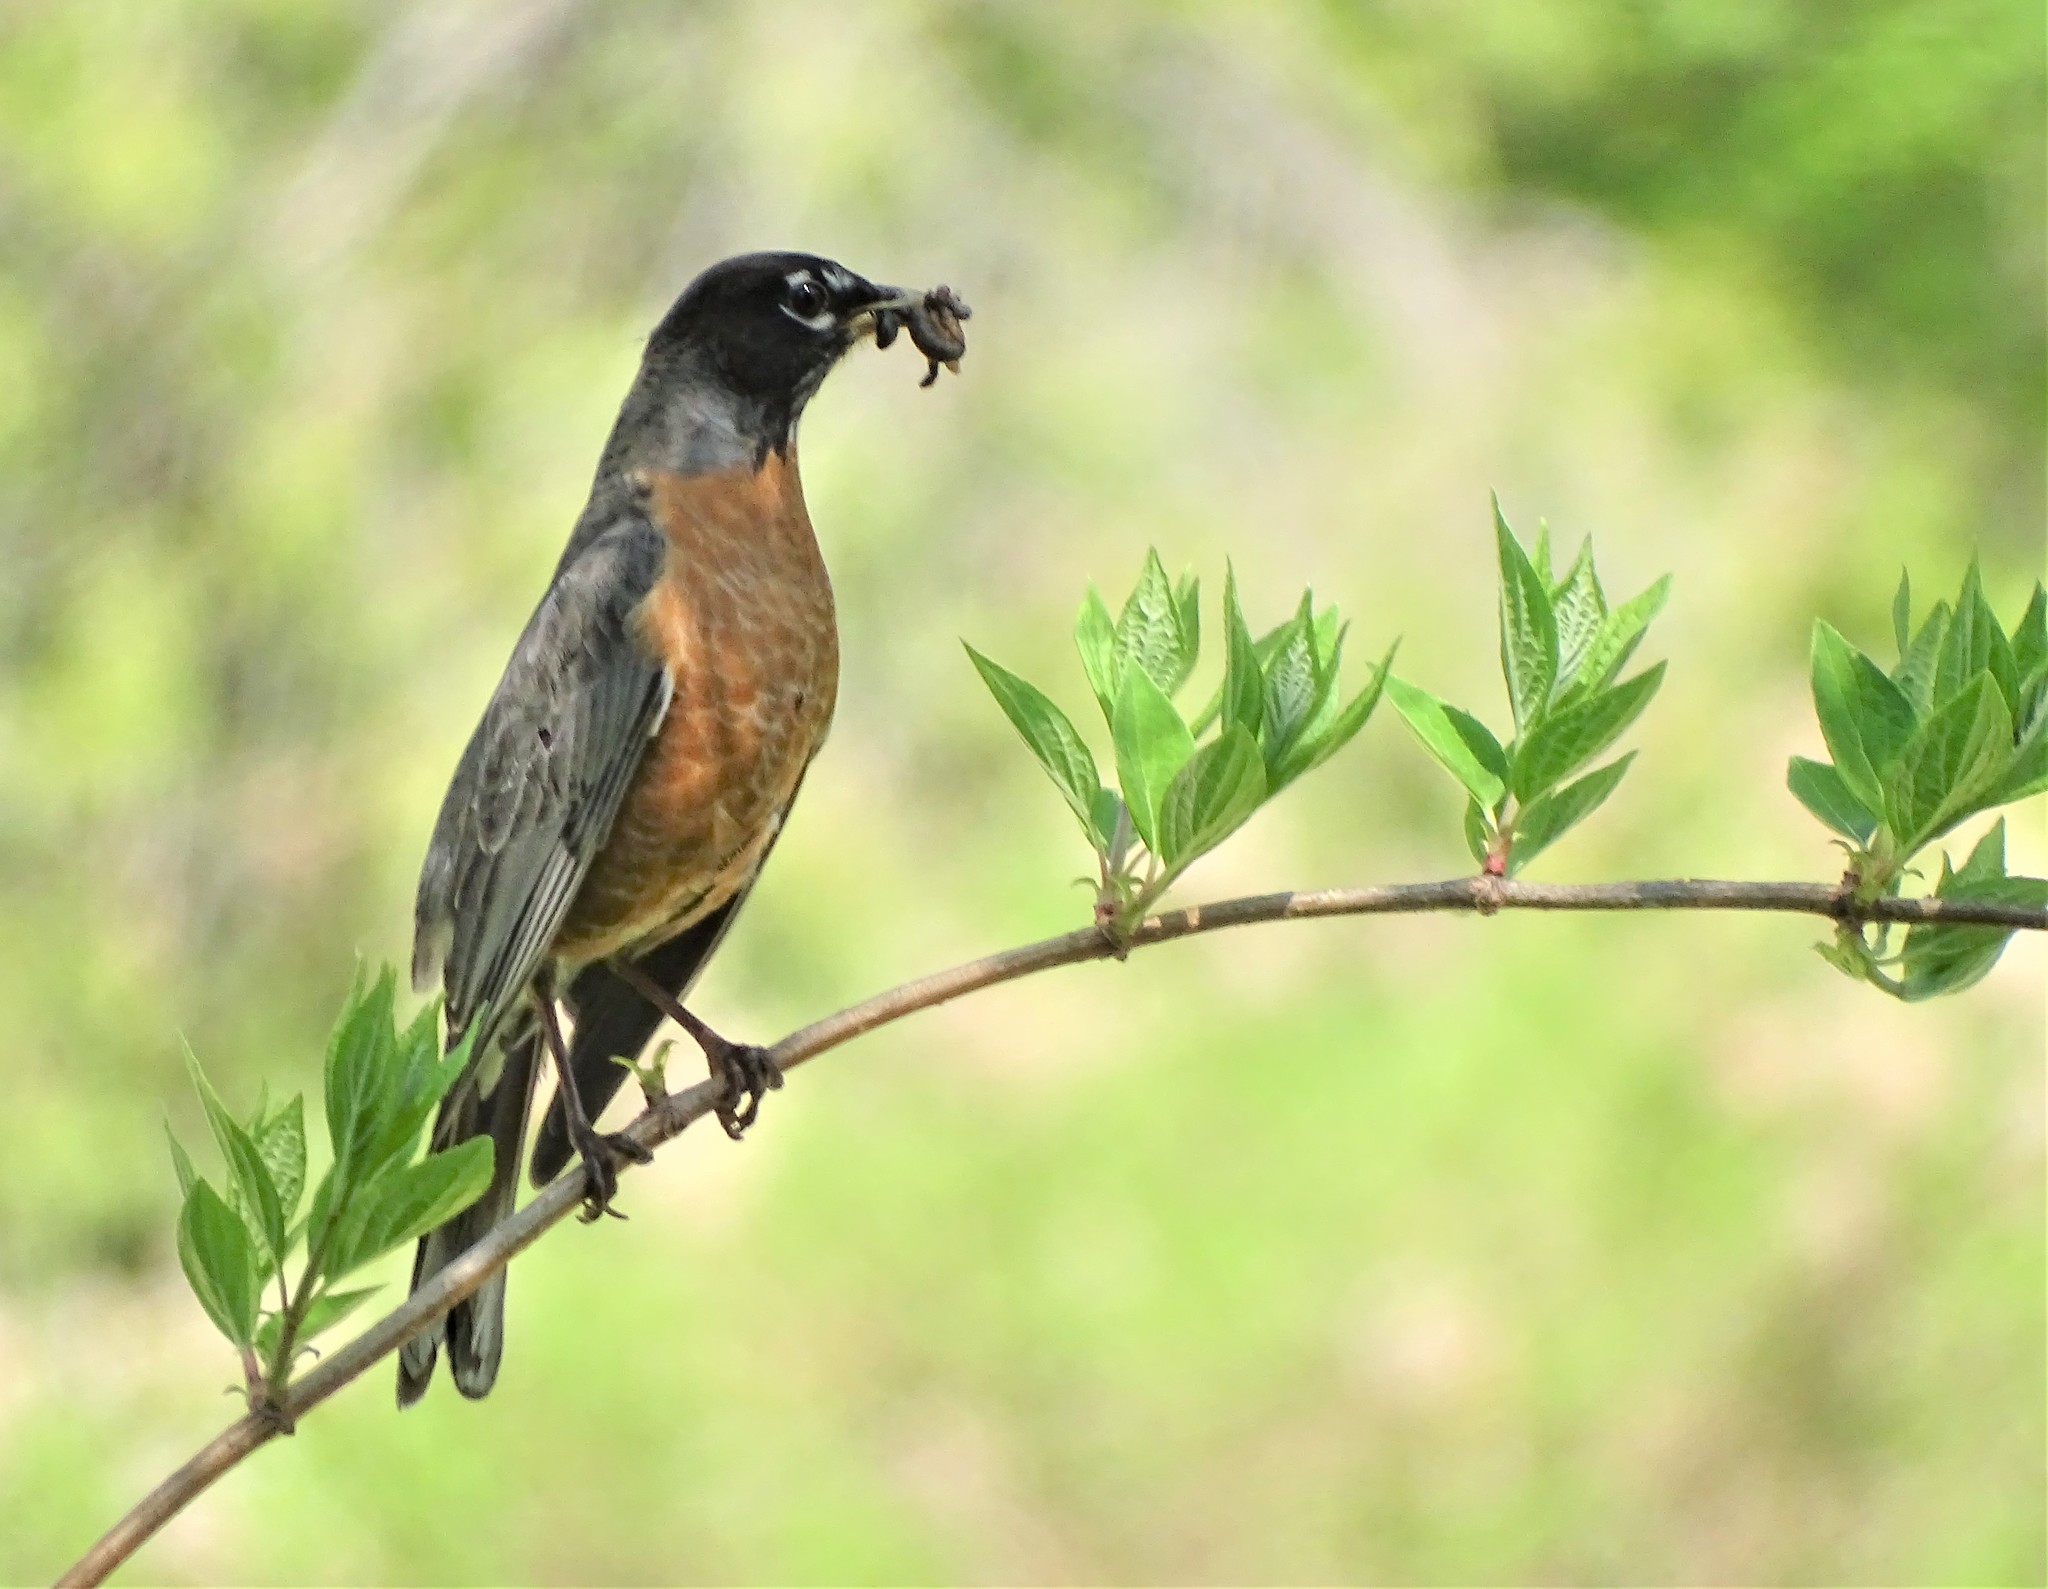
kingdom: Animalia
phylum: Chordata
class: Aves
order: Passeriformes
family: Turdidae
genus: Turdus
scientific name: Turdus migratorius
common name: American robin
